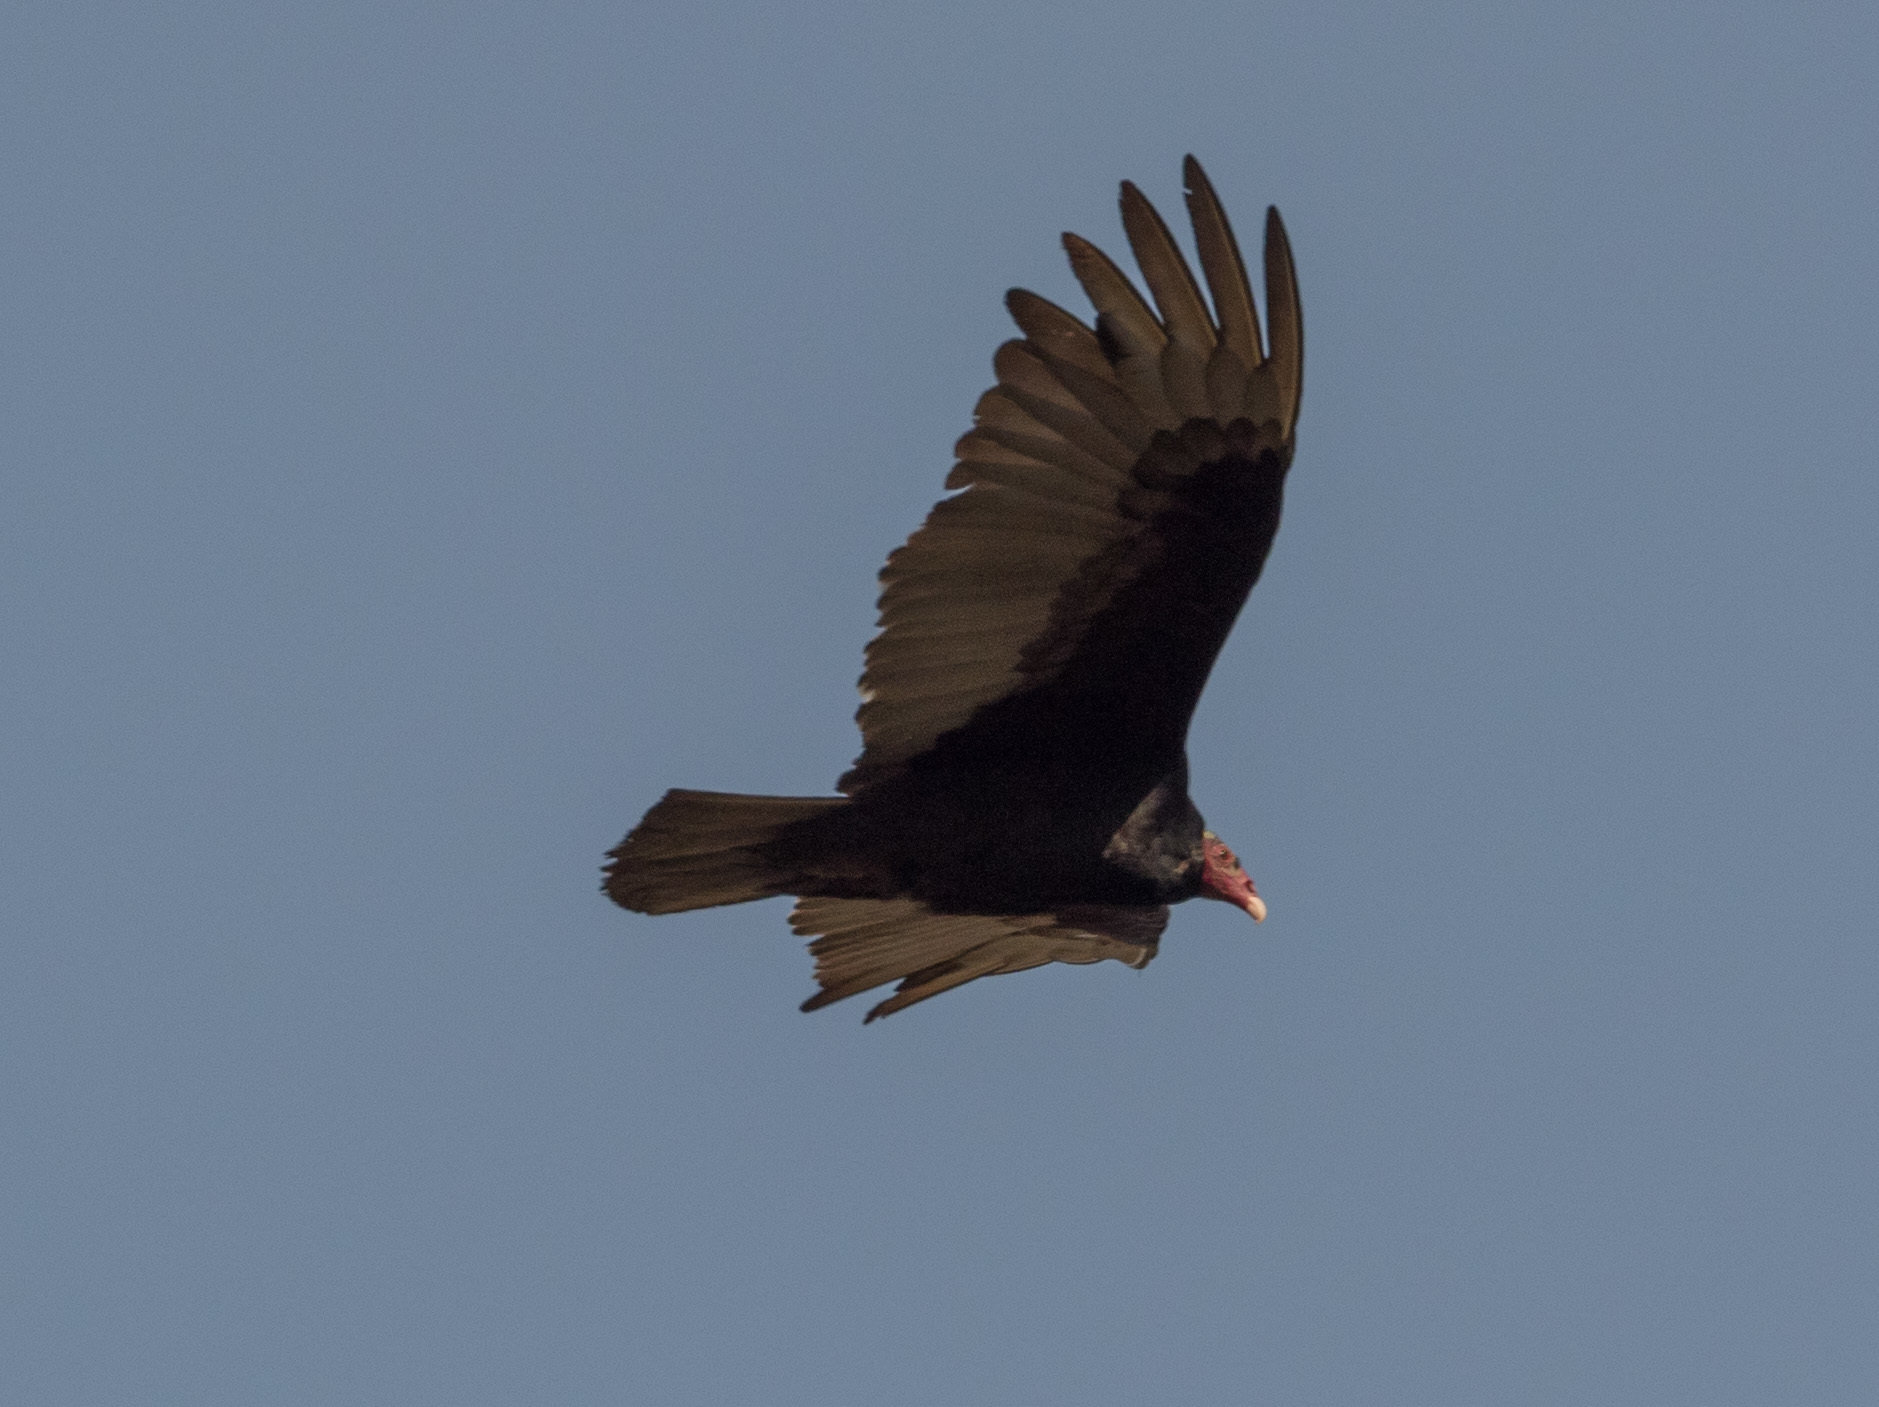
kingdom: Animalia
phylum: Chordata
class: Aves
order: Accipitriformes
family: Cathartidae
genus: Cathartes
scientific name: Cathartes aura
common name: Turkey vulture
